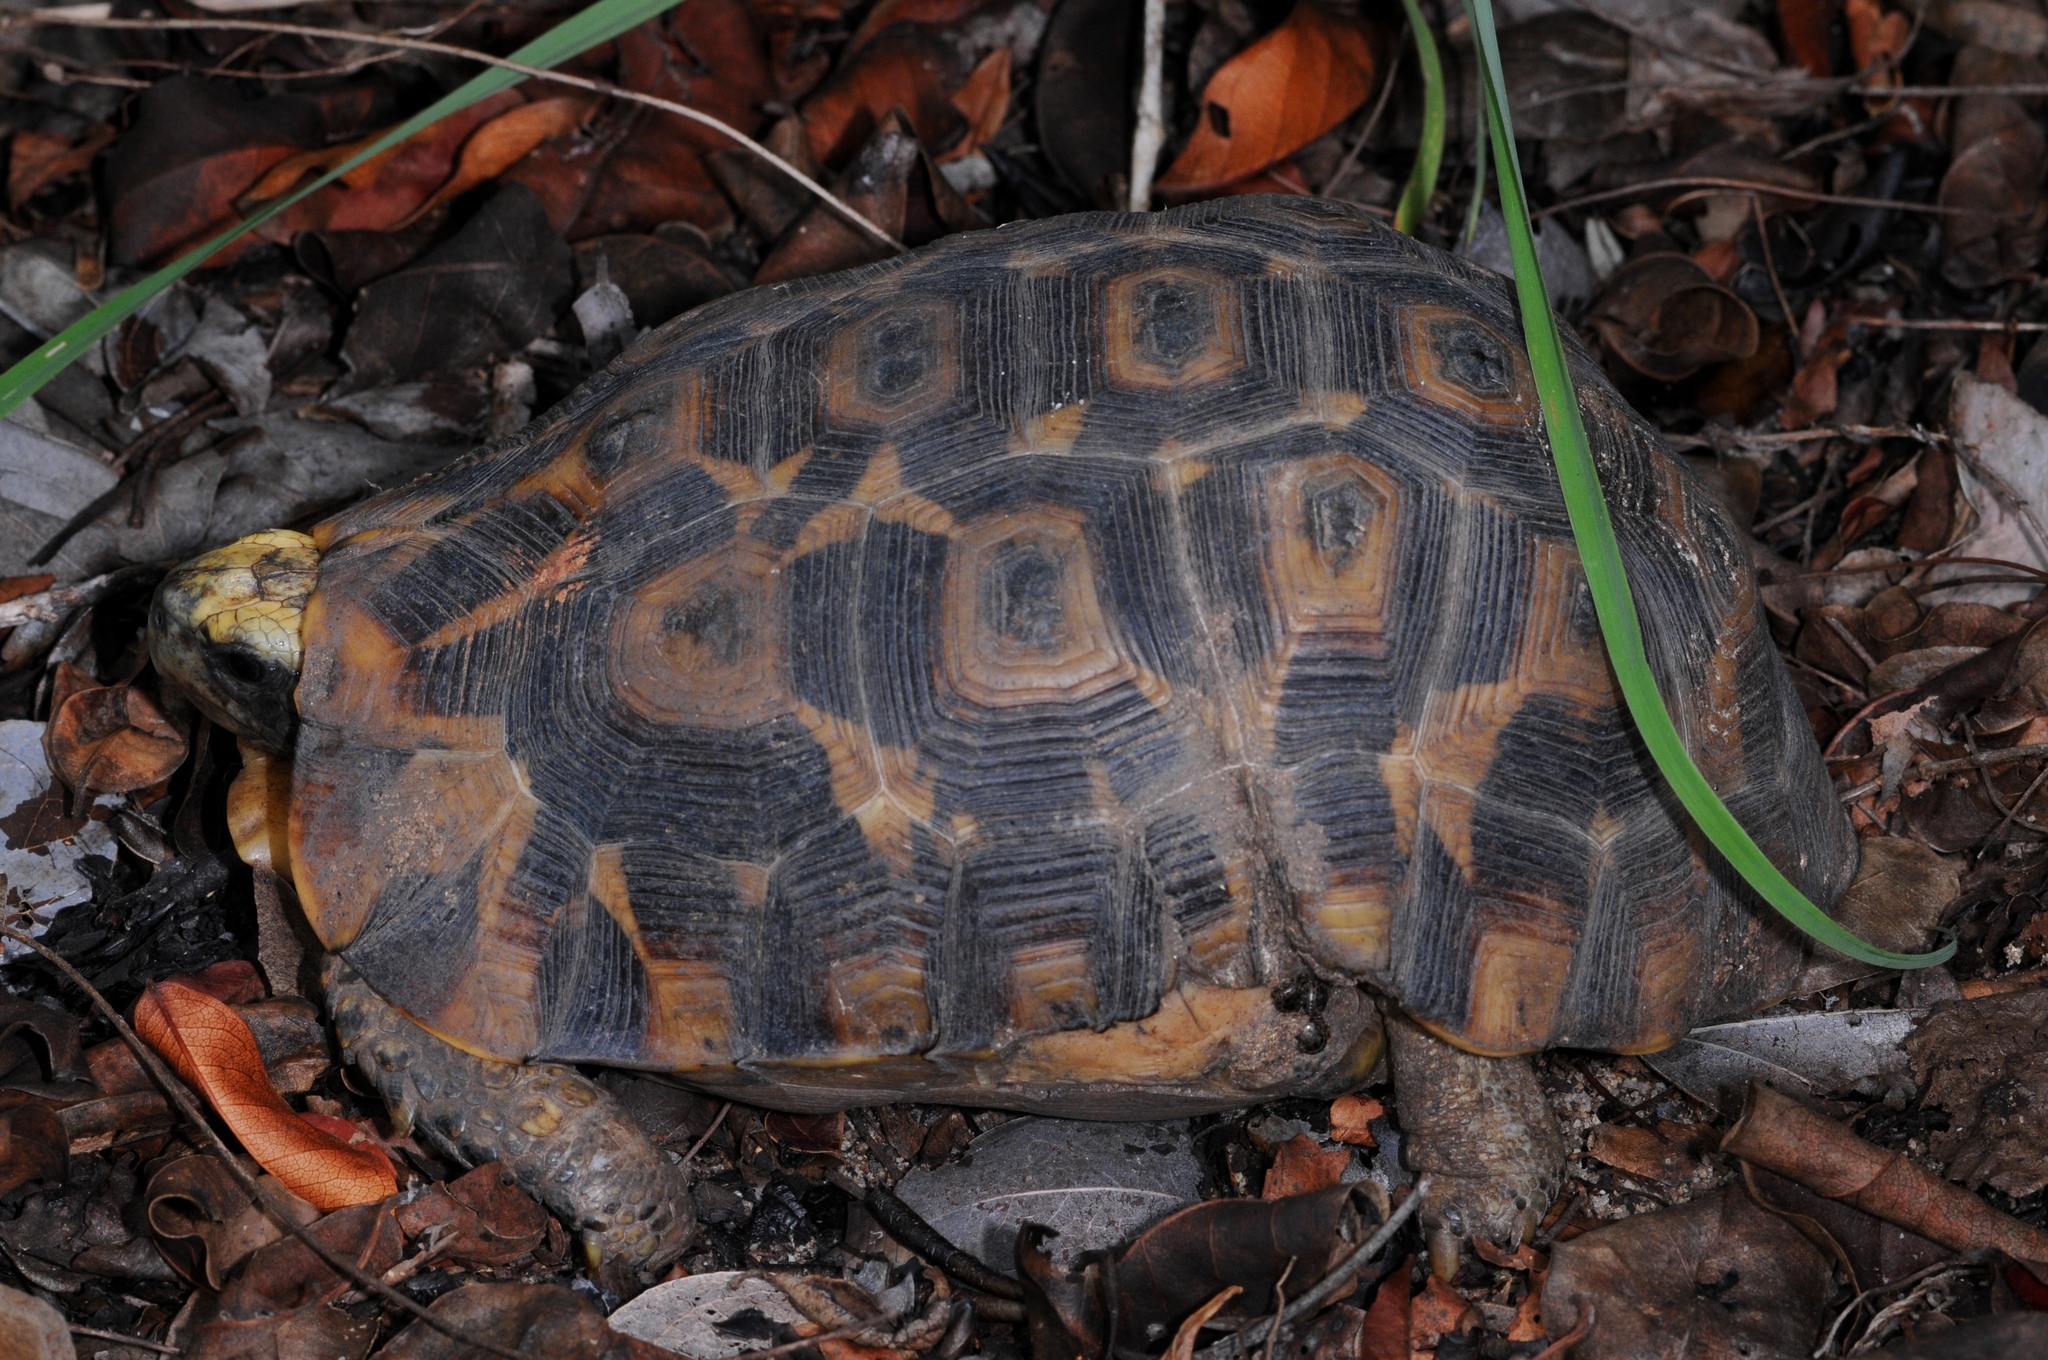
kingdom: Animalia
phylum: Chordata
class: Testudines
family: Testudinidae
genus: Kinixys
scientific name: Kinixys zombensis
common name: Southeastern hinge-back tortoise
